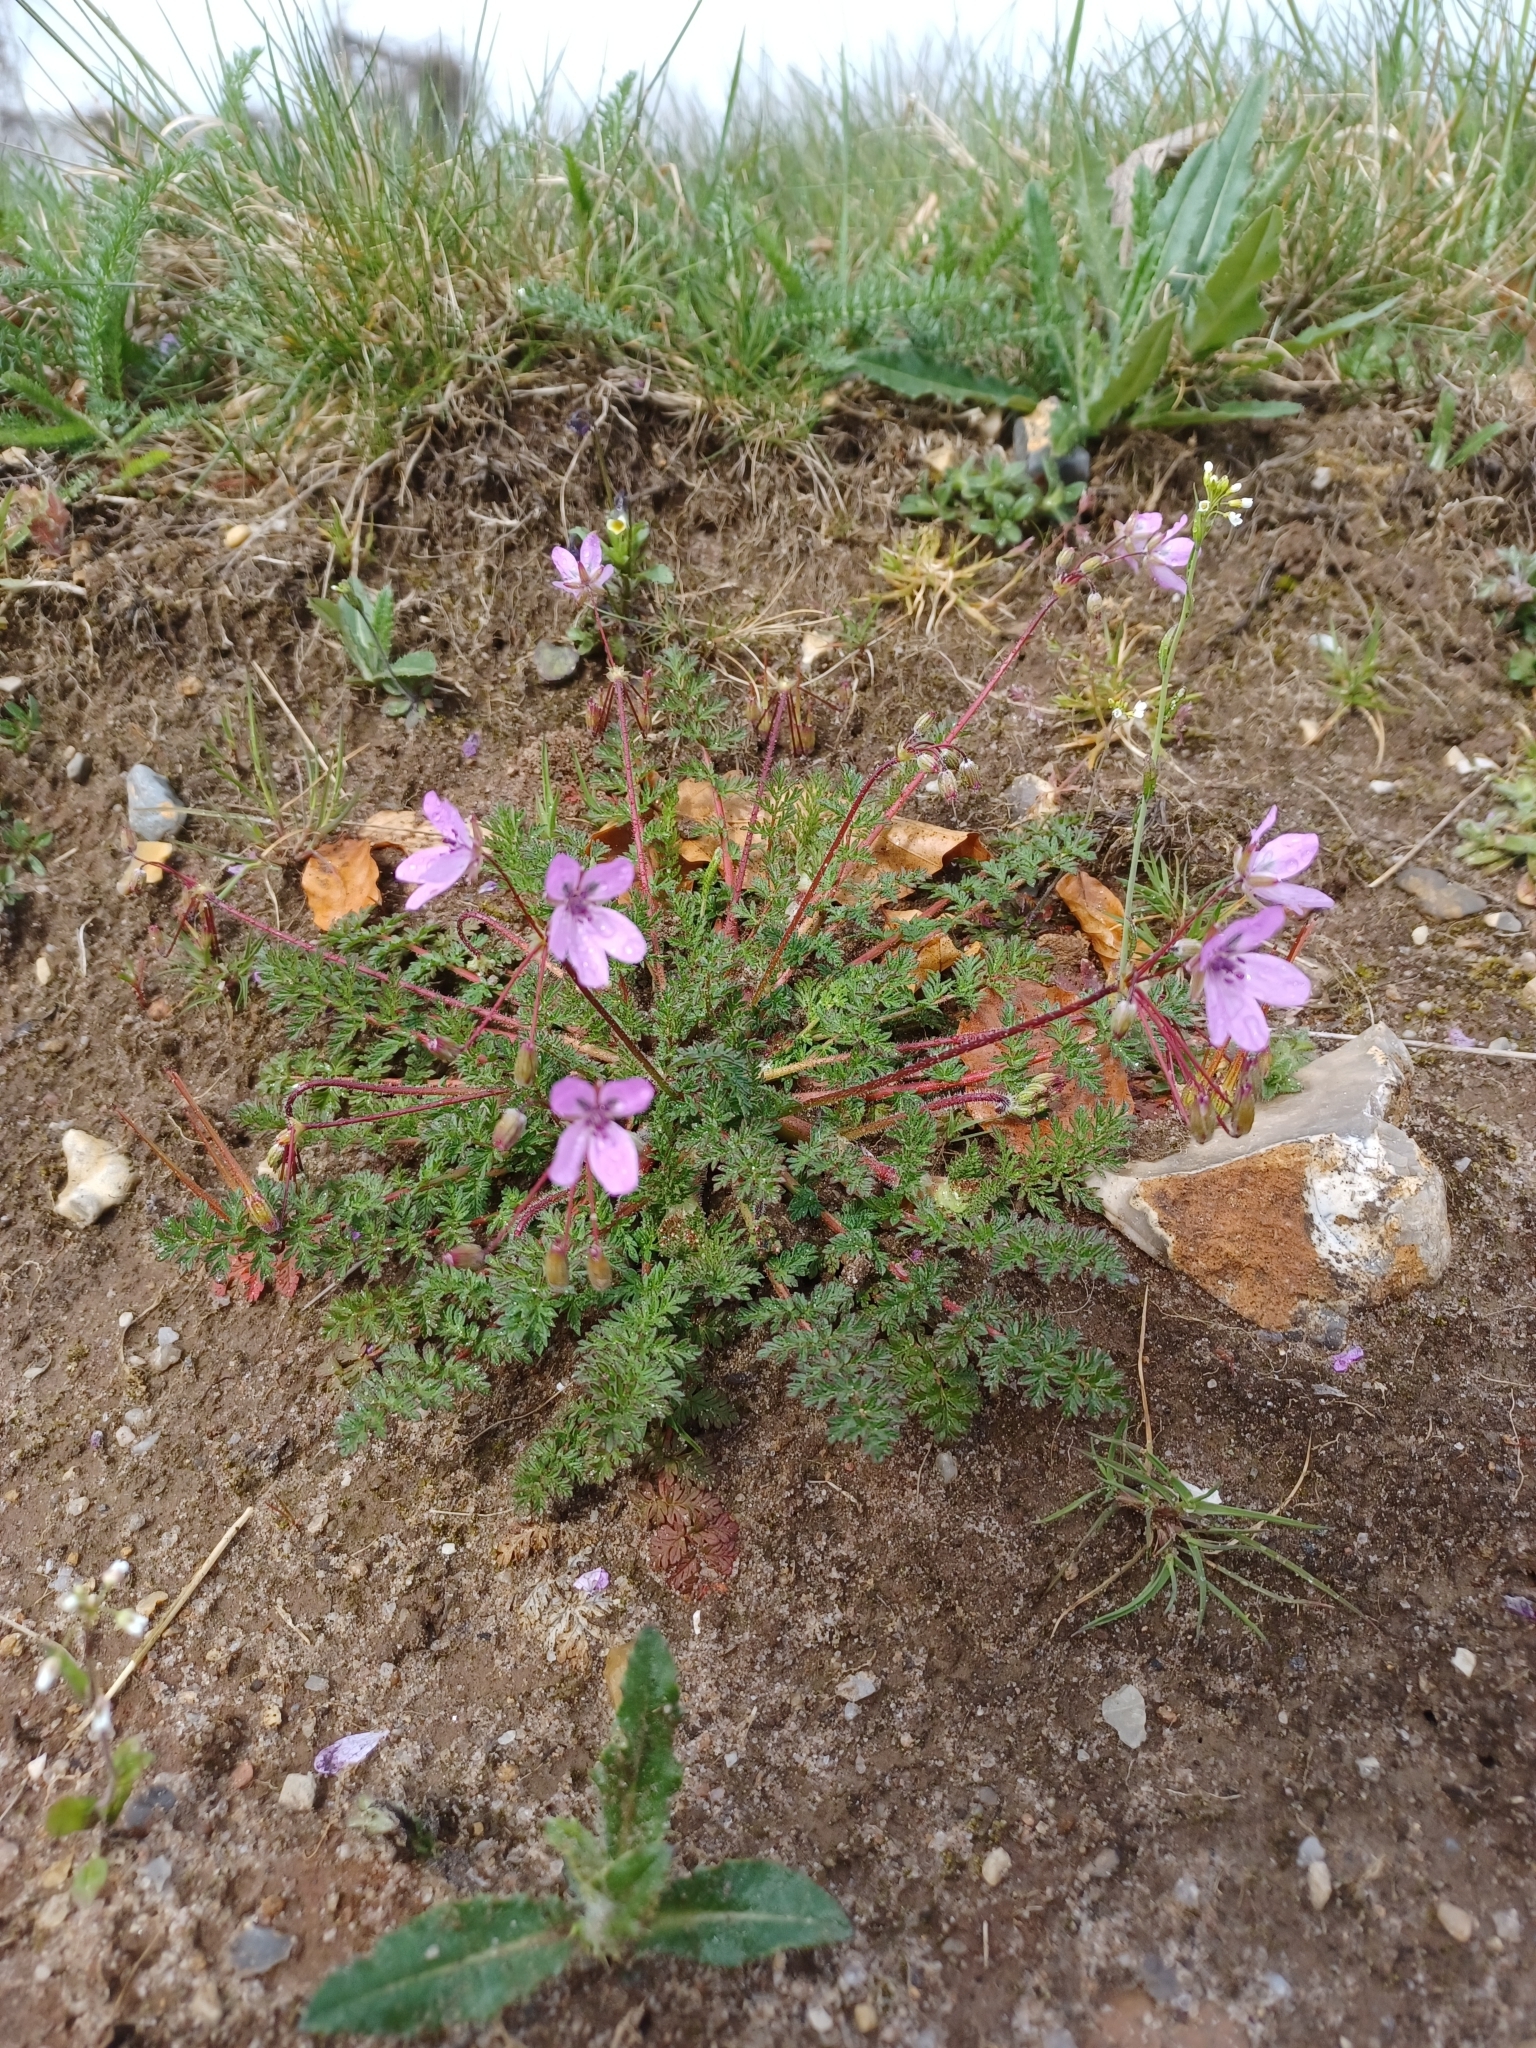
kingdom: Plantae
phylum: Tracheophyta
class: Magnoliopsida
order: Geraniales
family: Geraniaceae
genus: Erodium
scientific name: Erodium cicutarium
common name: Common stork's-bill
